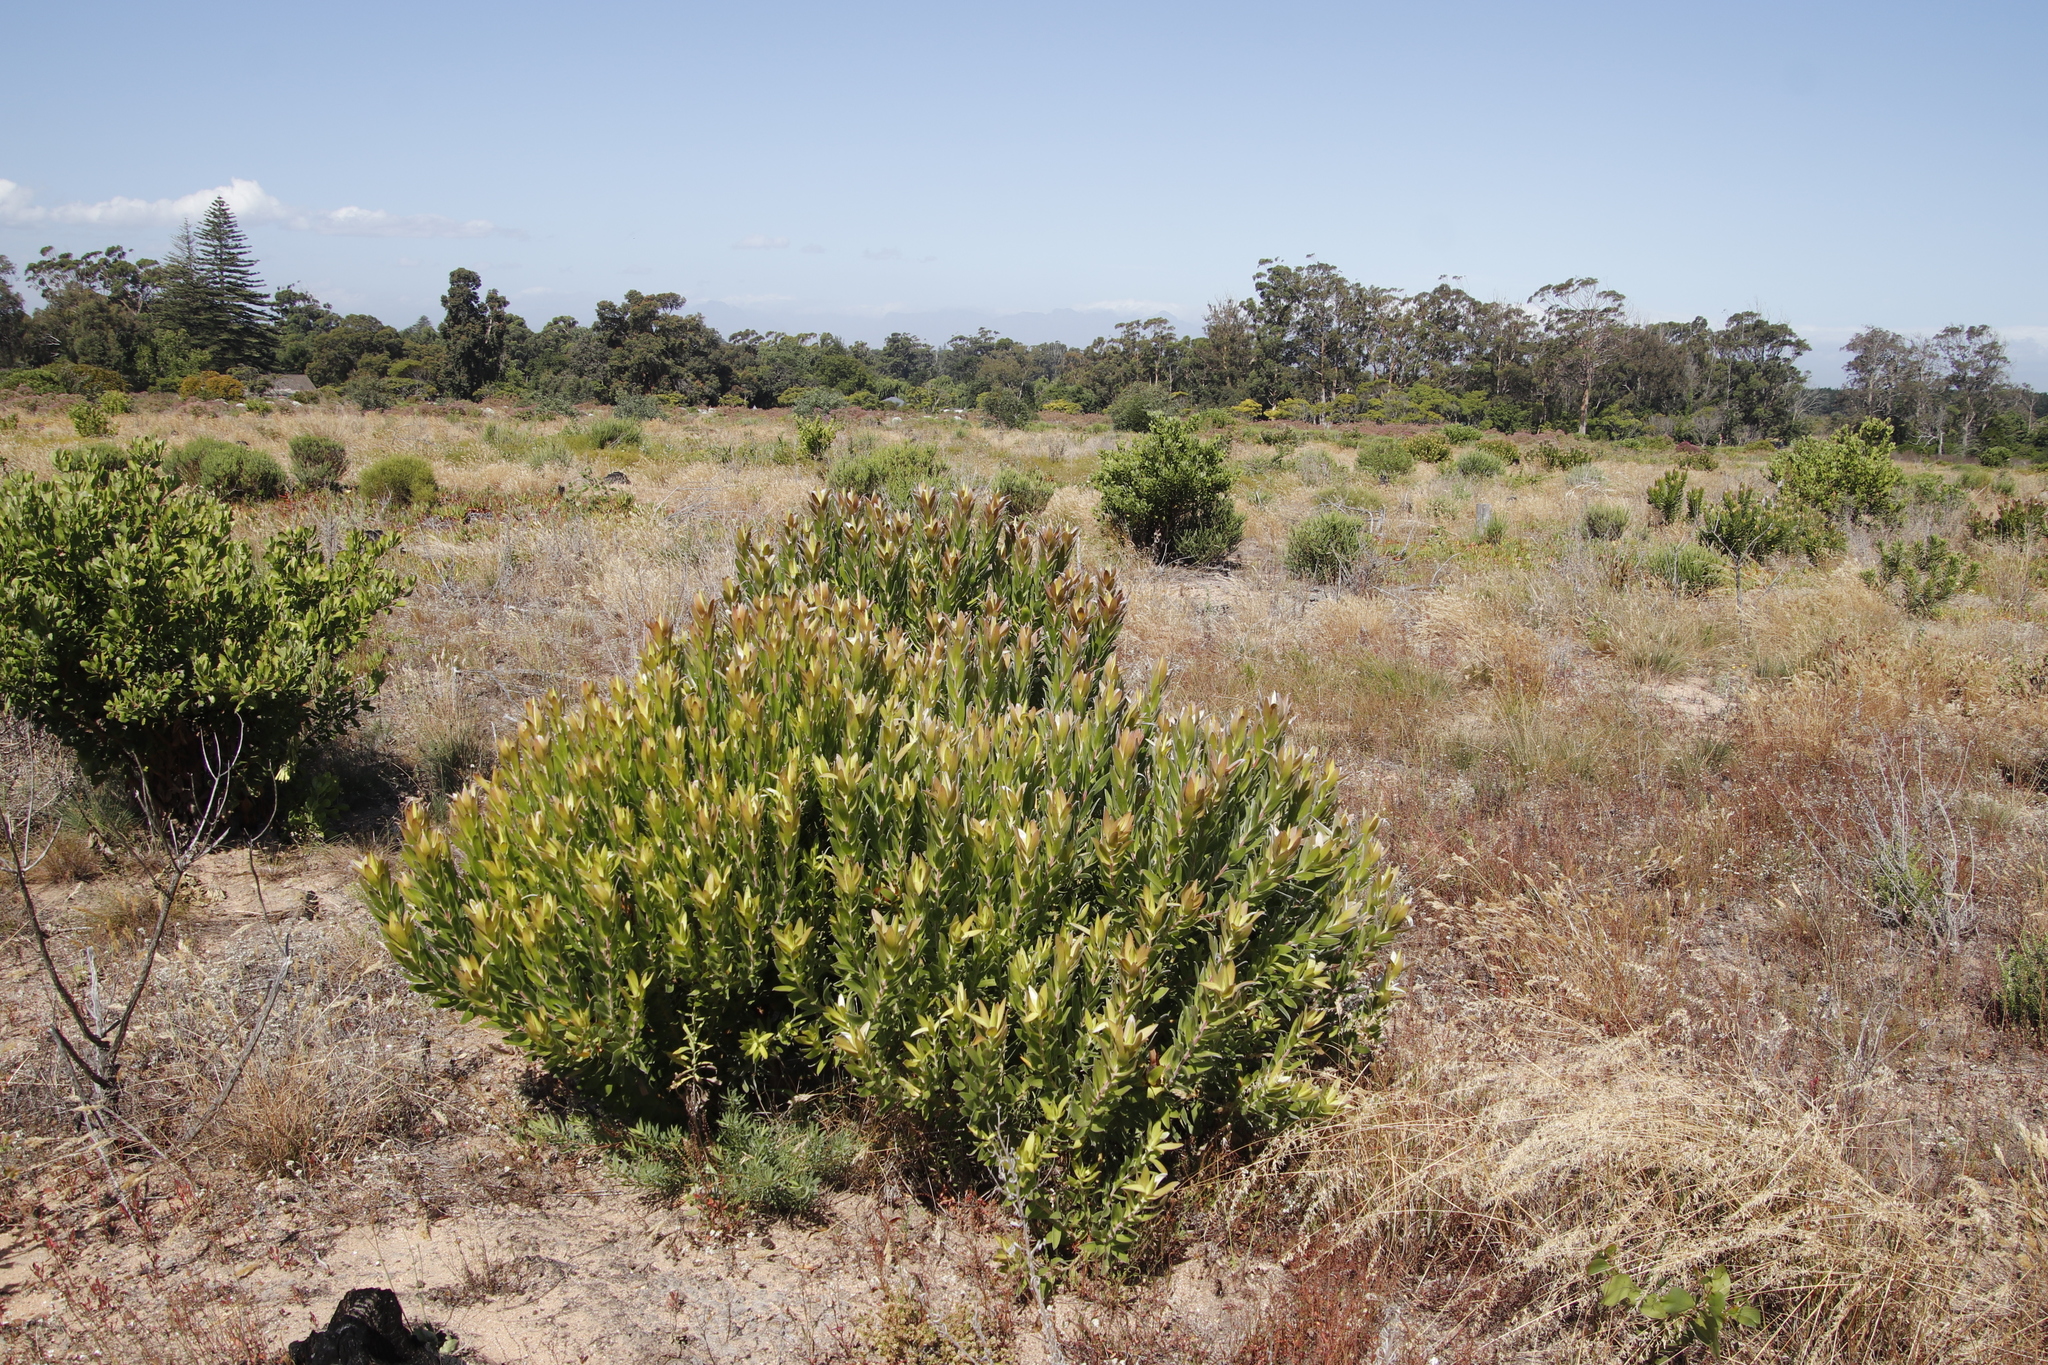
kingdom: Plantae
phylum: Tracheophyta
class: Magnoliopsida
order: Proteales
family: Proteaceae
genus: Leucadendron
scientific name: Leucadendron laureolum
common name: Golden sunshinebush
